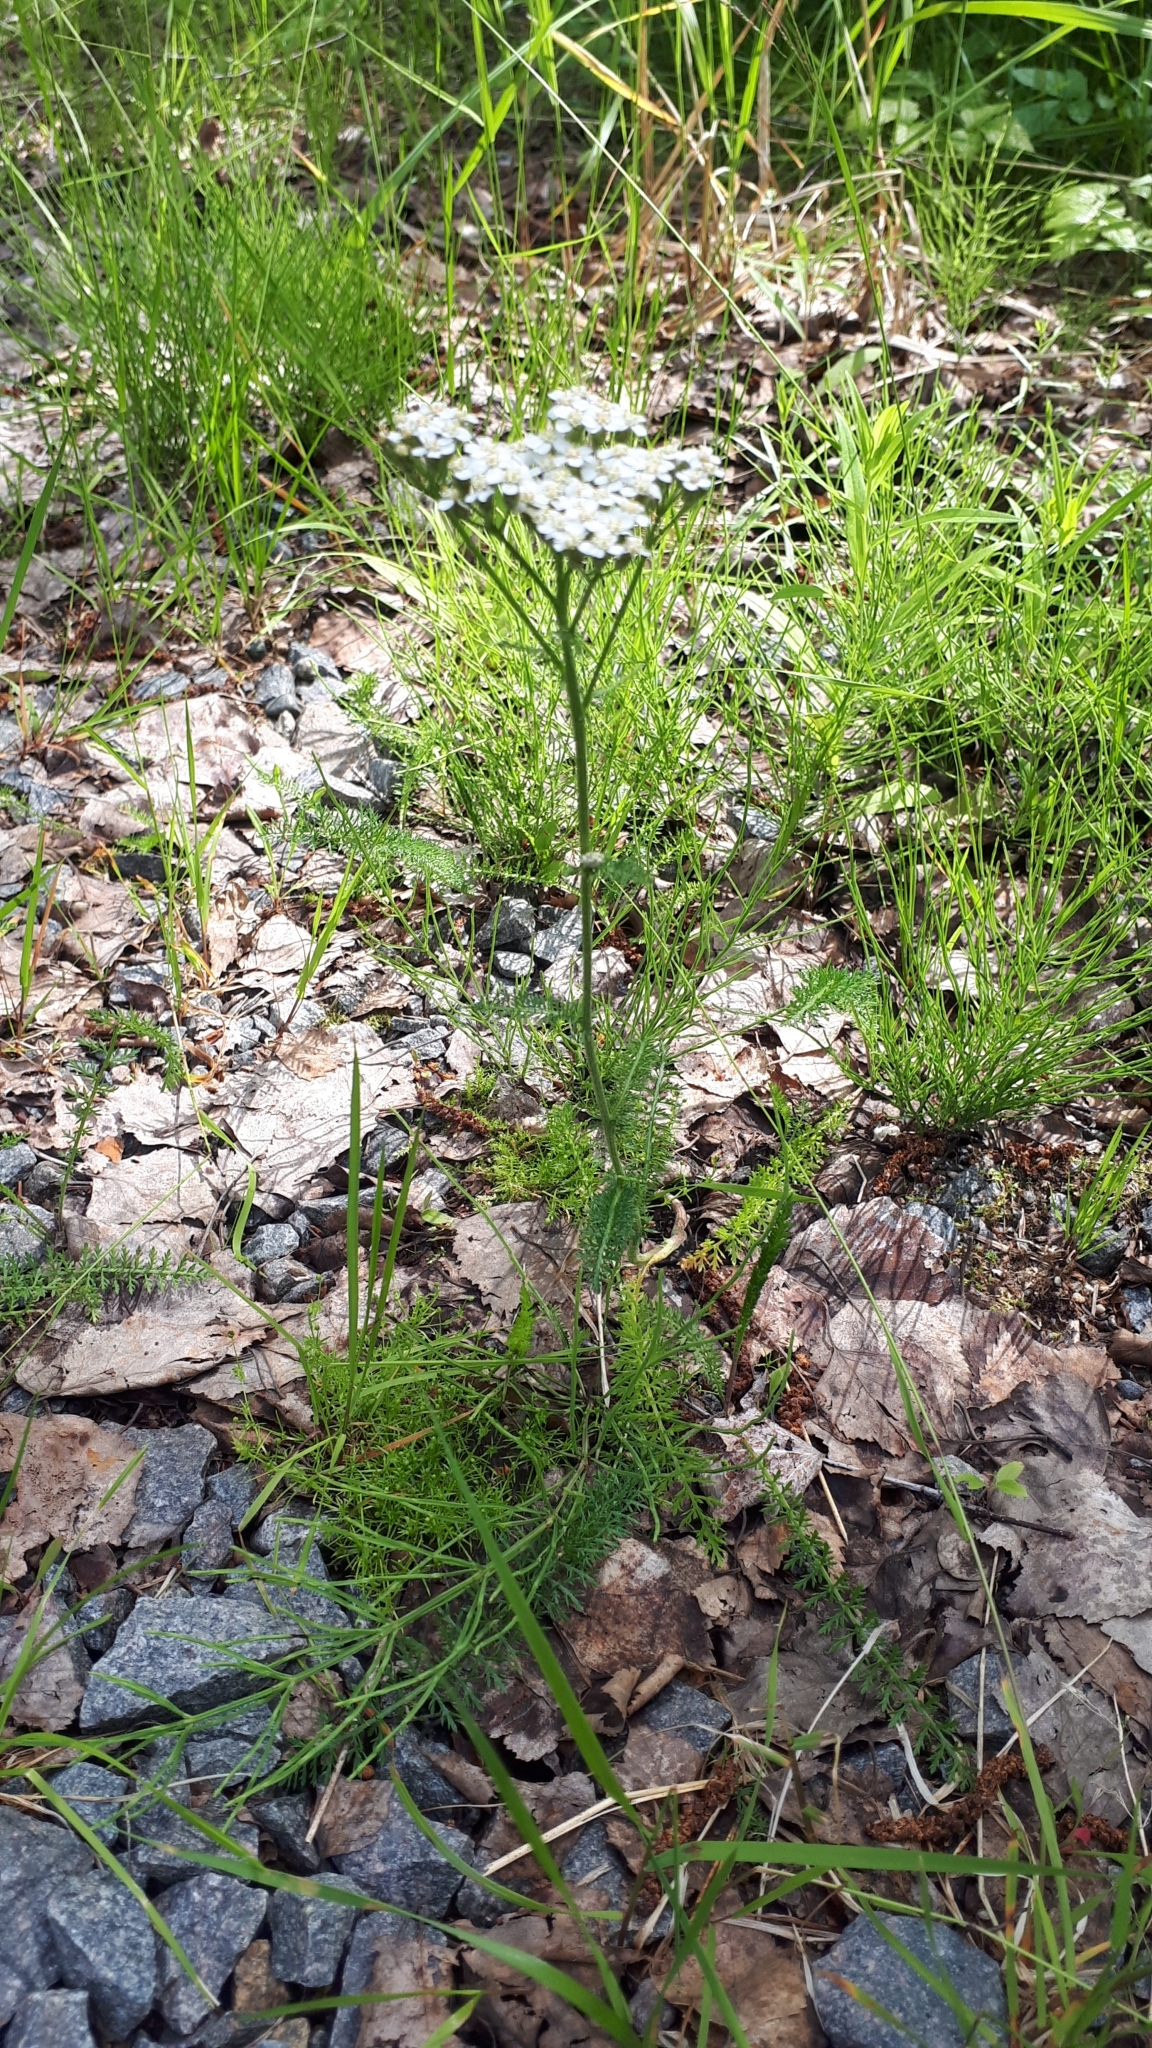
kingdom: Plantae
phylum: Tracheophyta
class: Magnoliopsida
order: Asterales
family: Asteraceae
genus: Achillea
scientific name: Achillea millefolium
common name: Yarrow
